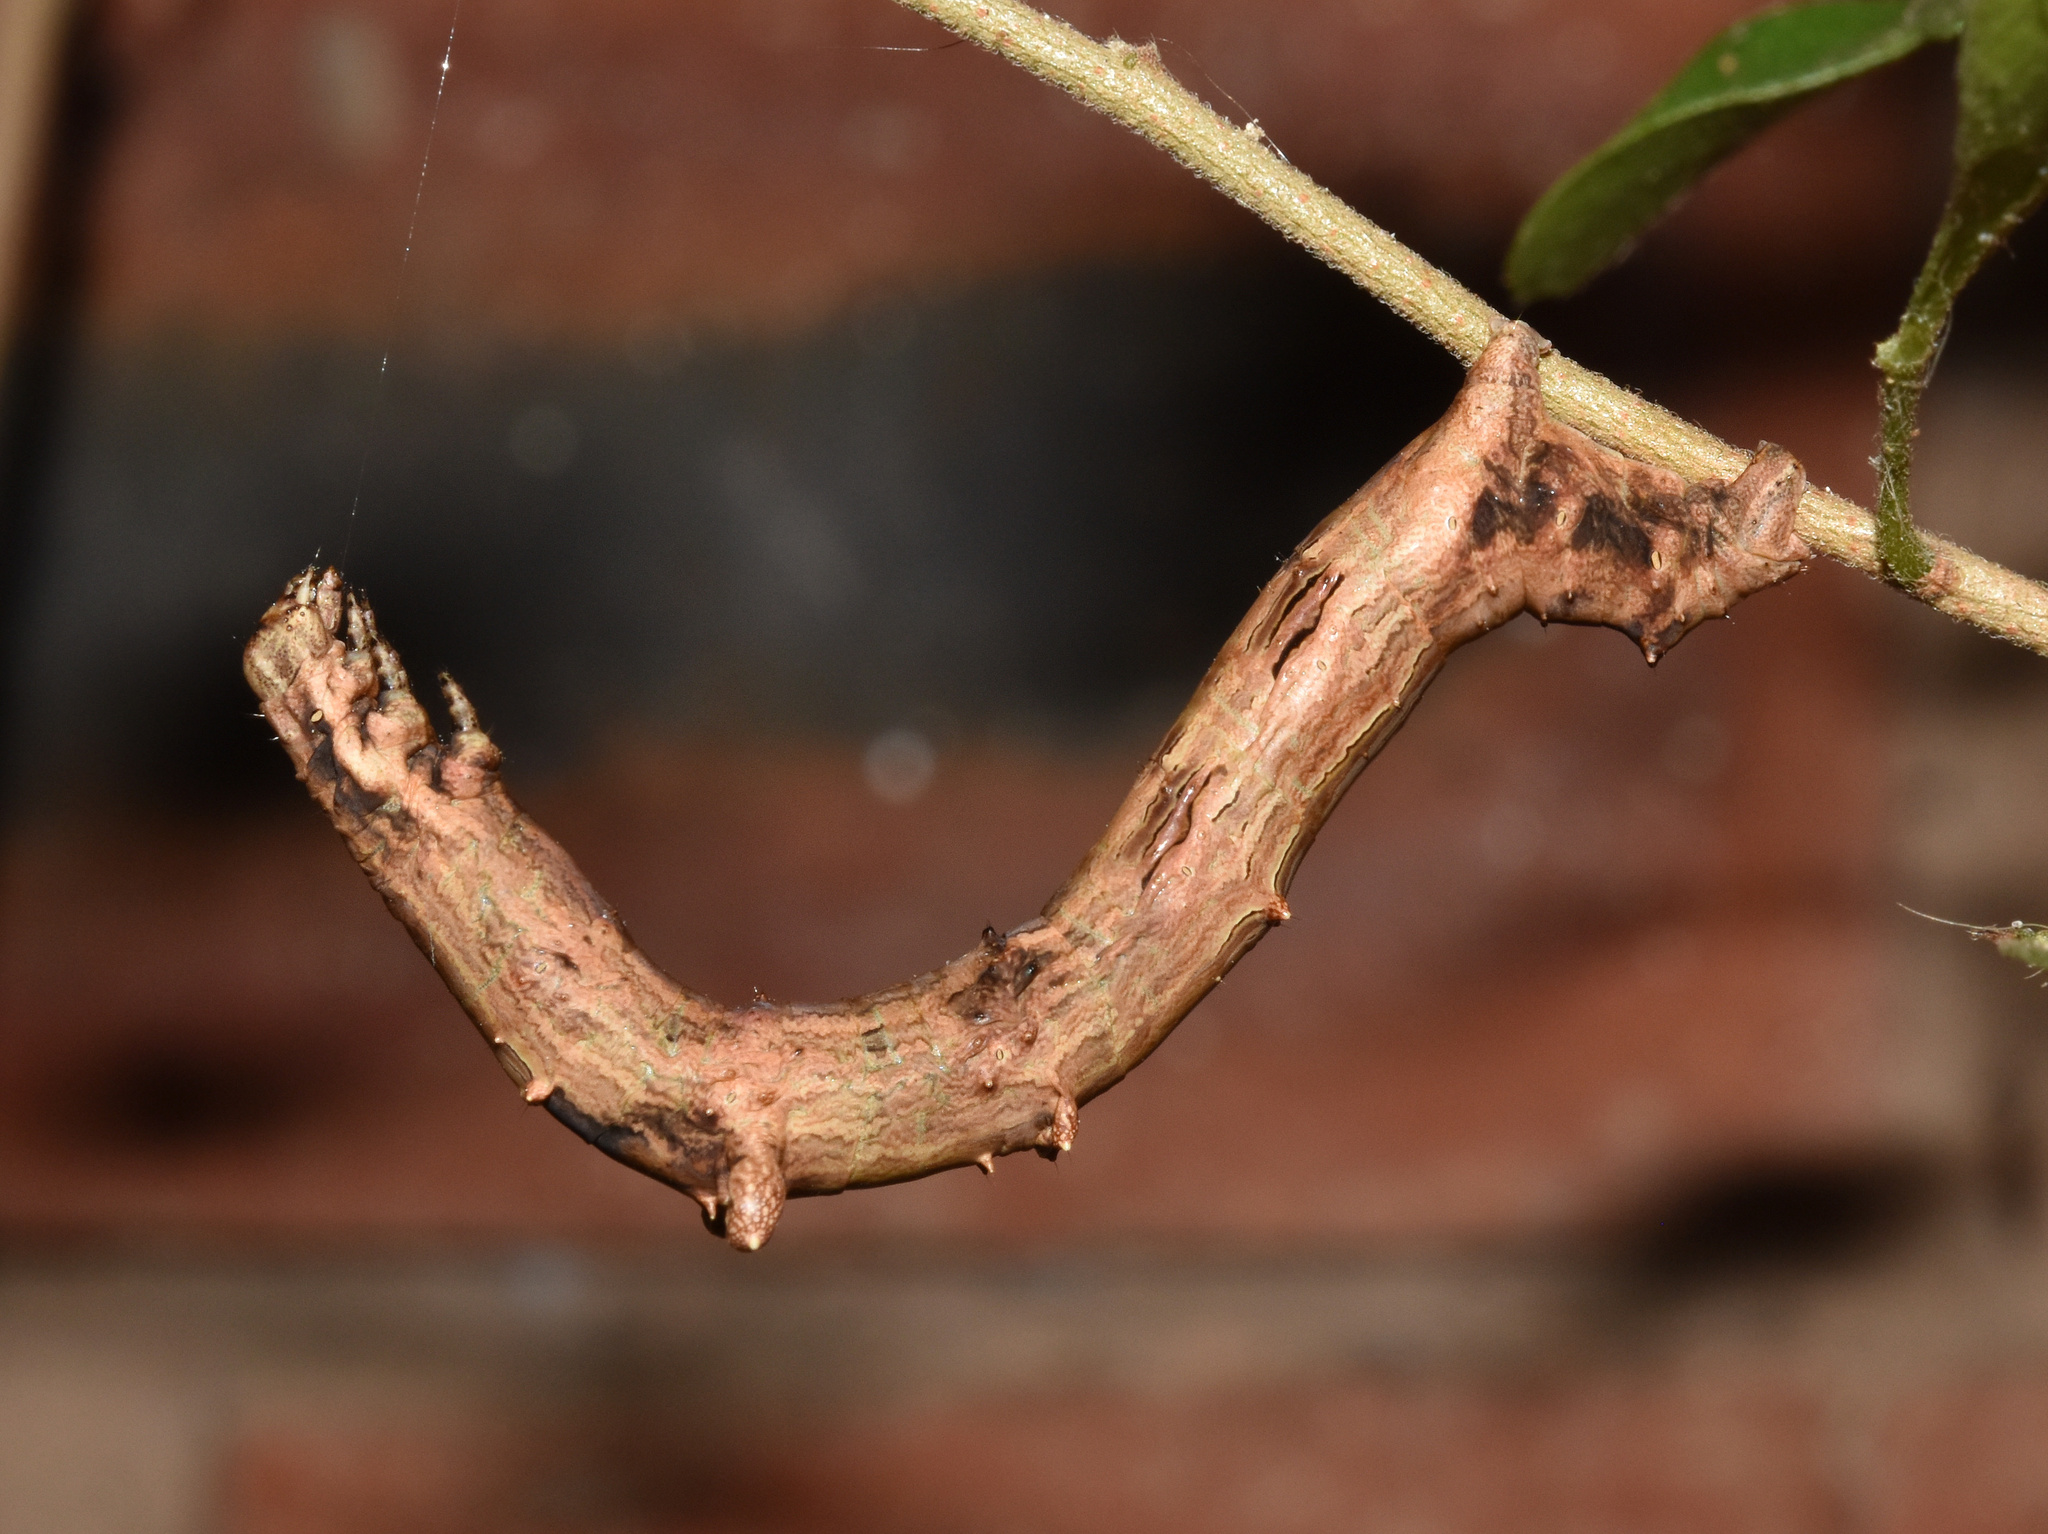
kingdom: Animalia
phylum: Arthropoda
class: Insecta
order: Lepidoptera
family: Geometridae
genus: Xenimpia
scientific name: Xenimpia erosa
